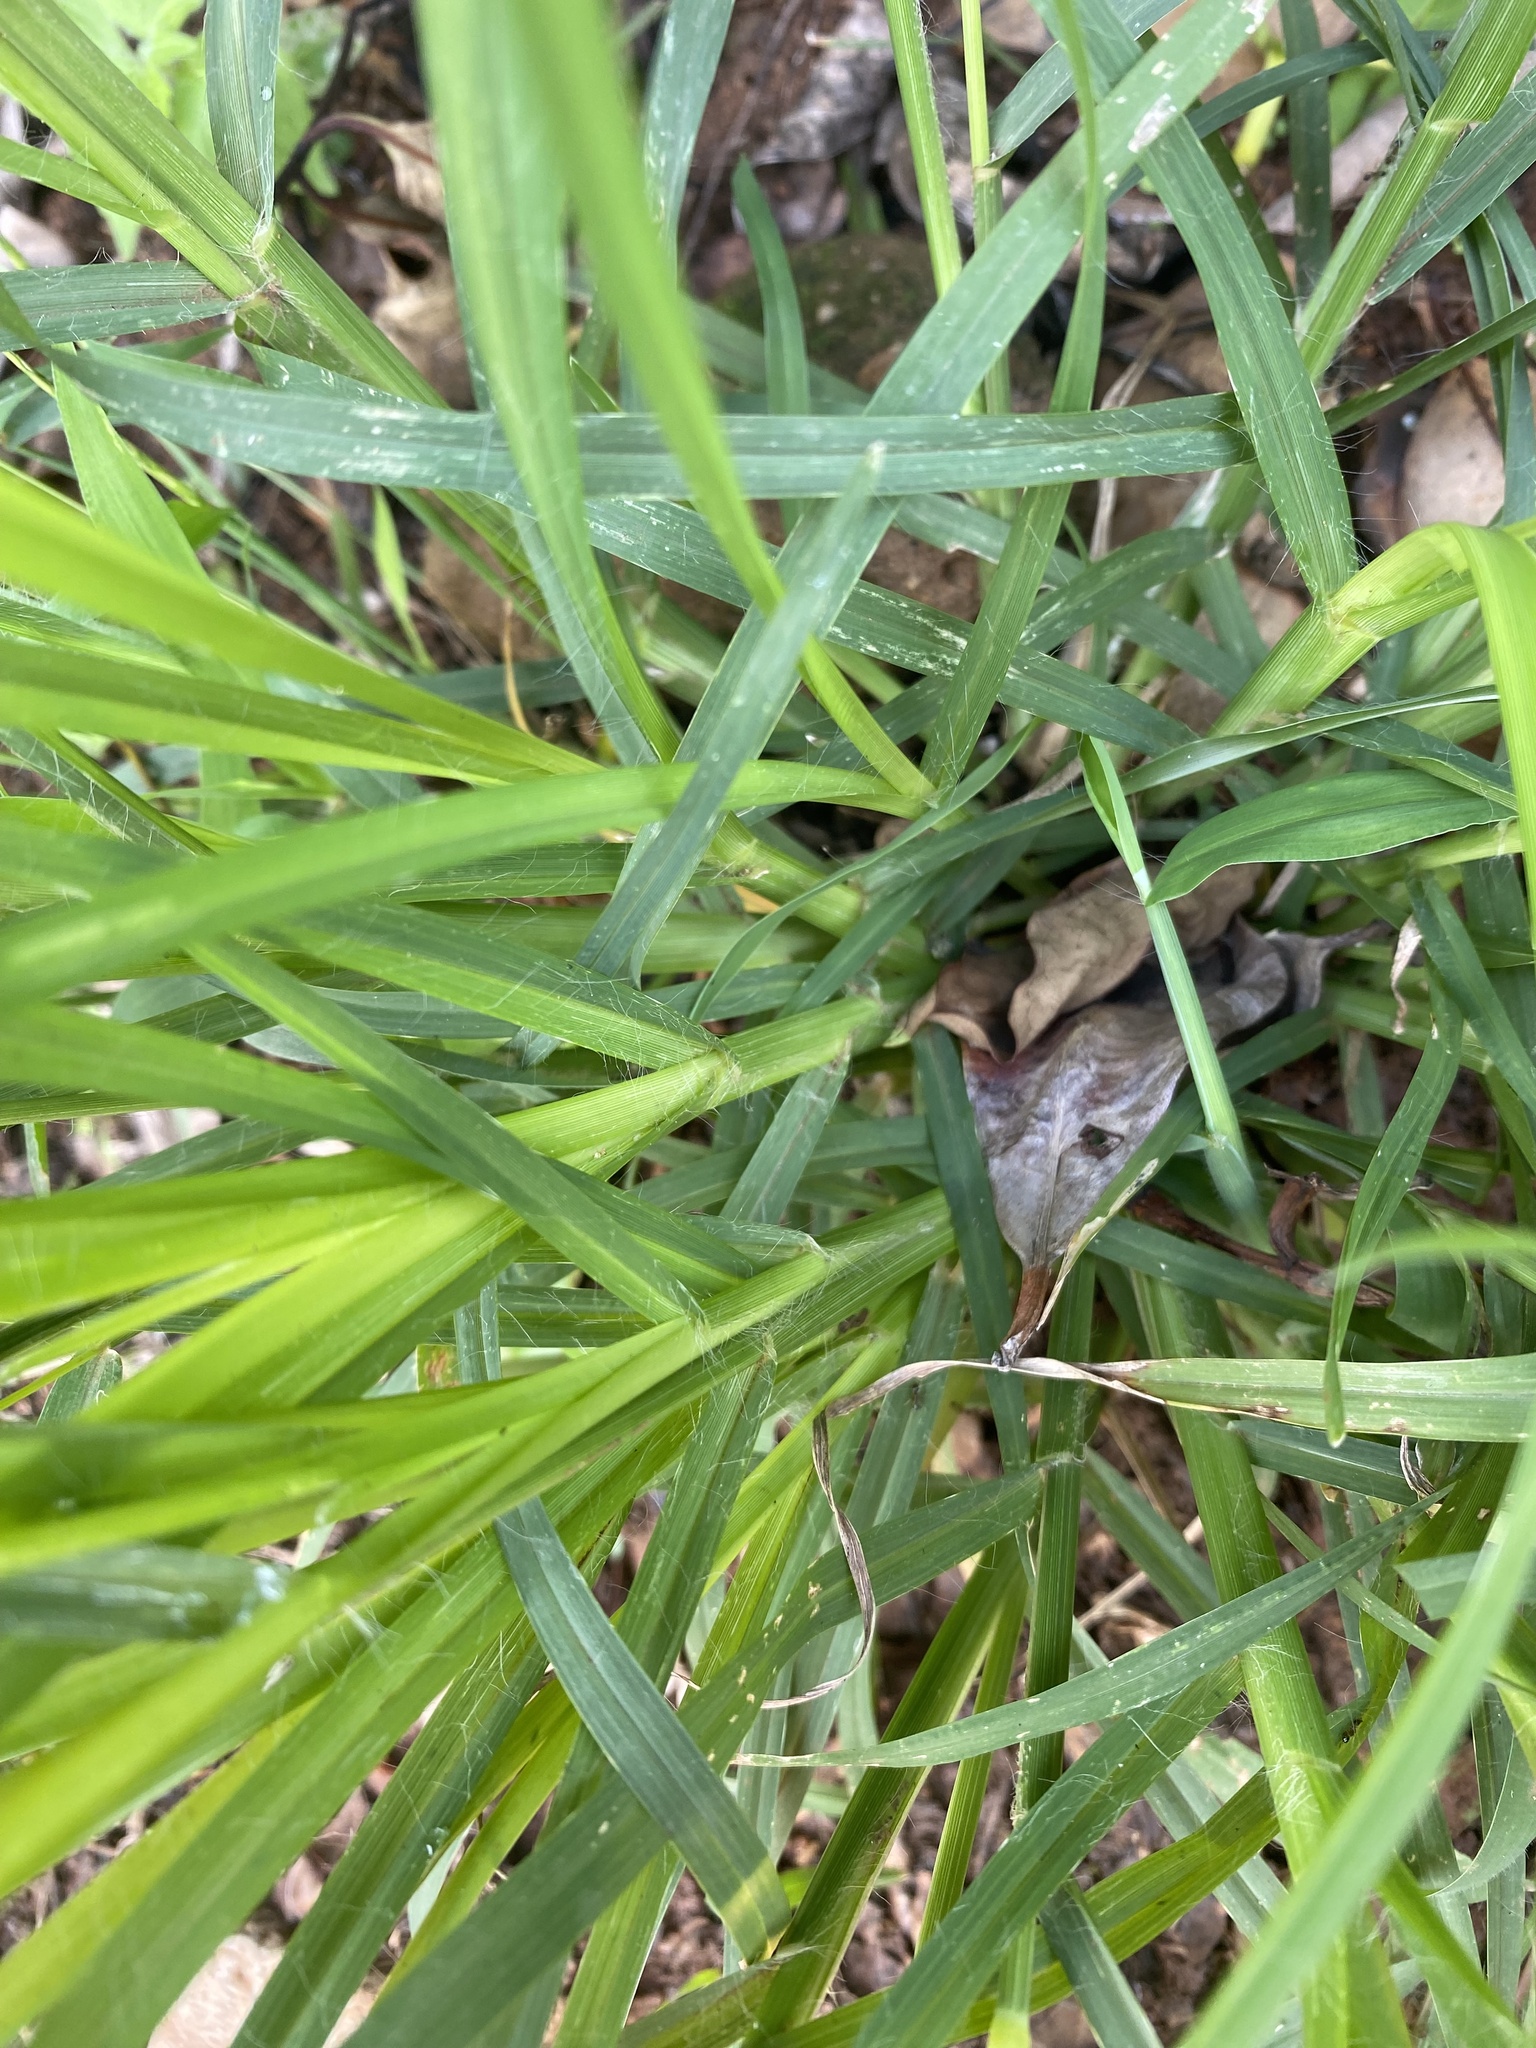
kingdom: Plantae
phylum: Tracheophyta
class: Liliopsida
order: Poales
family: Poaceae
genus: Eleusine
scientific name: Eleusine indica
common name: Yard-grass
